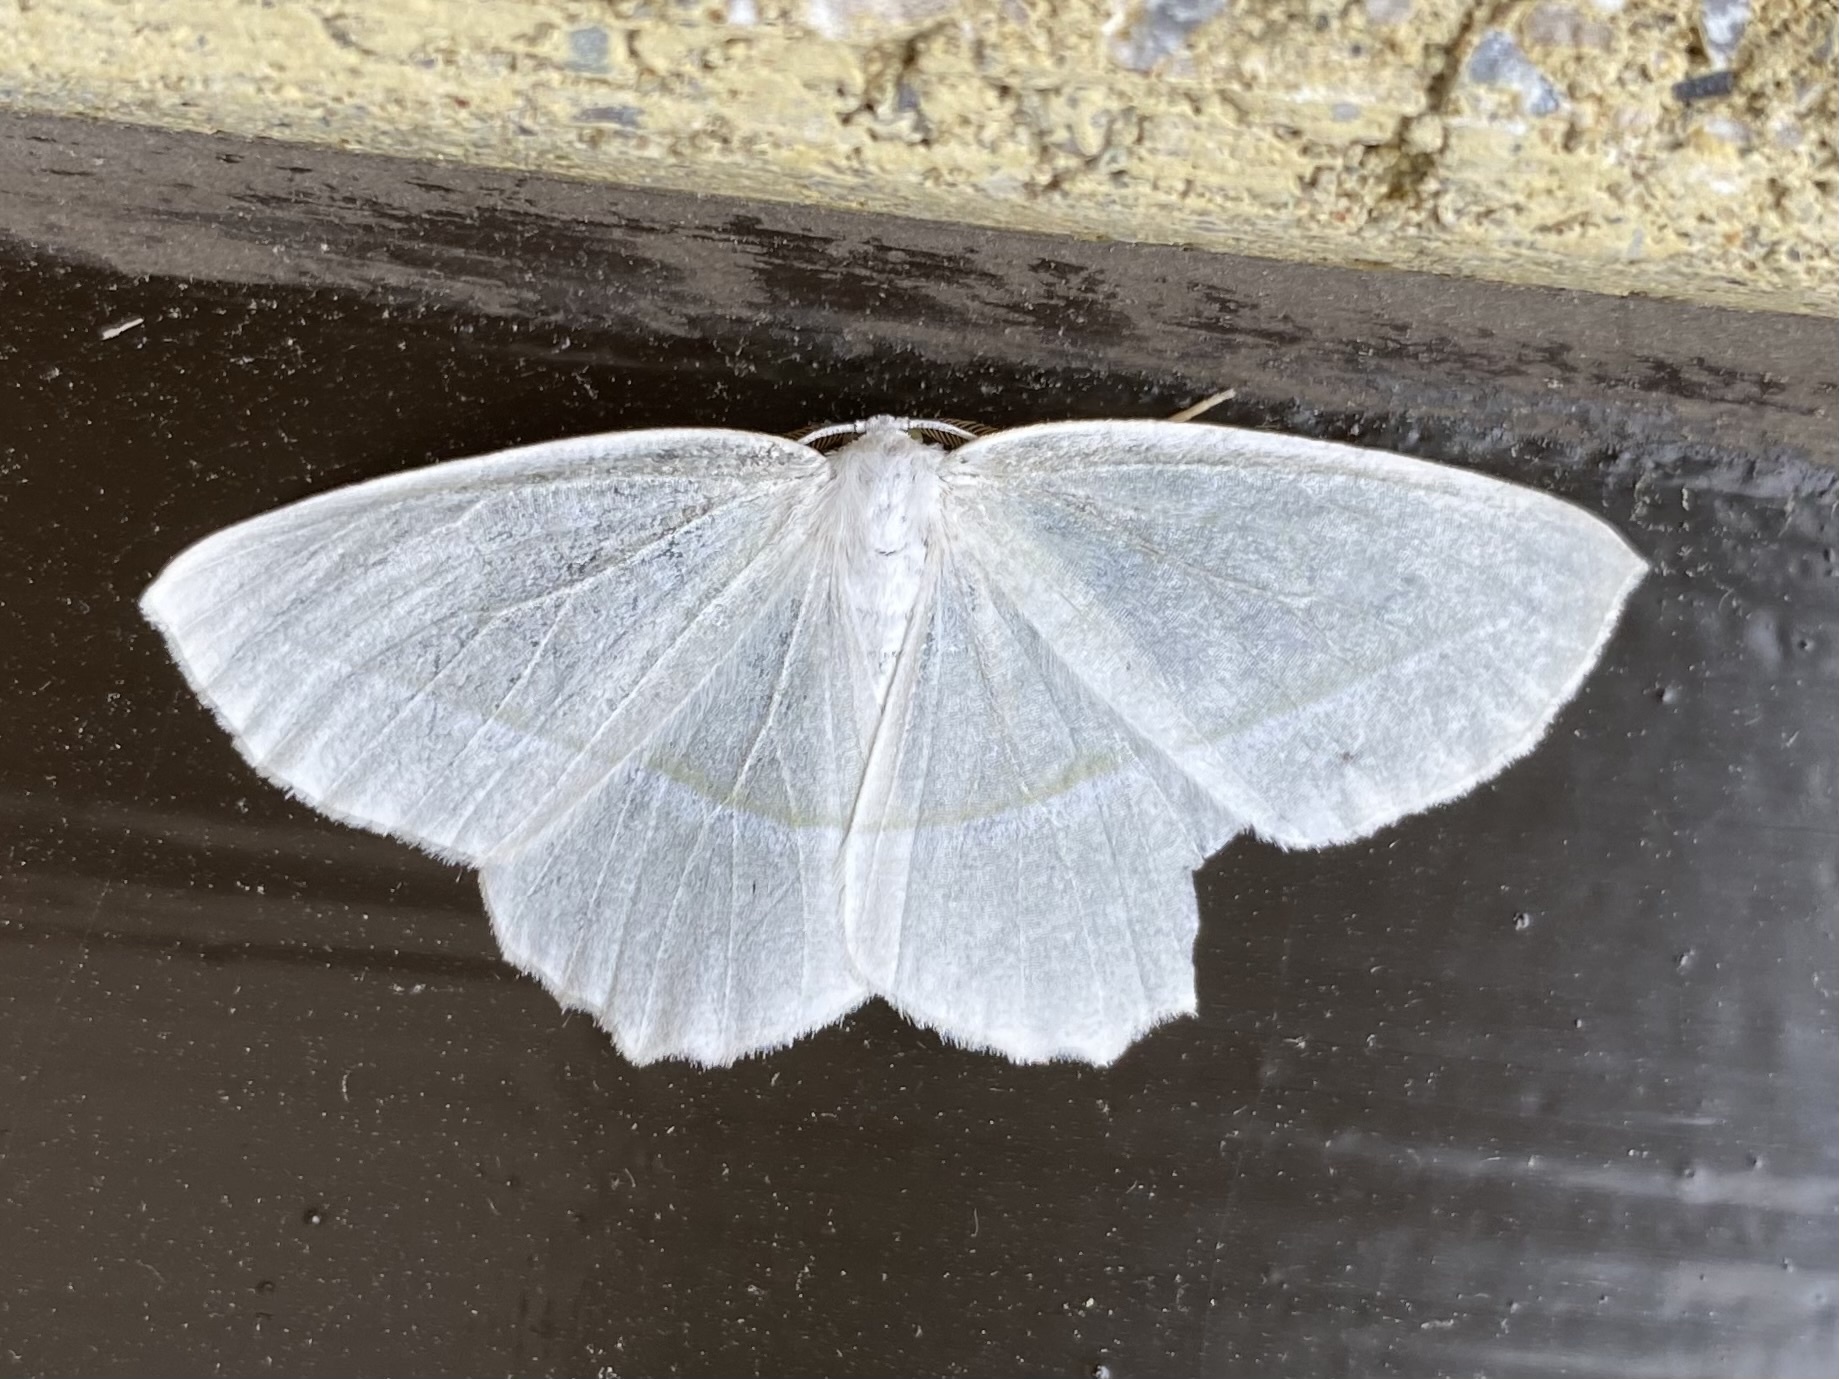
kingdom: Animalia
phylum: Arthropoda
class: Insecta
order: Lepidoptera
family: Geometridae
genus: Campaea
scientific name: Campaea perlata
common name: Fringed looper
